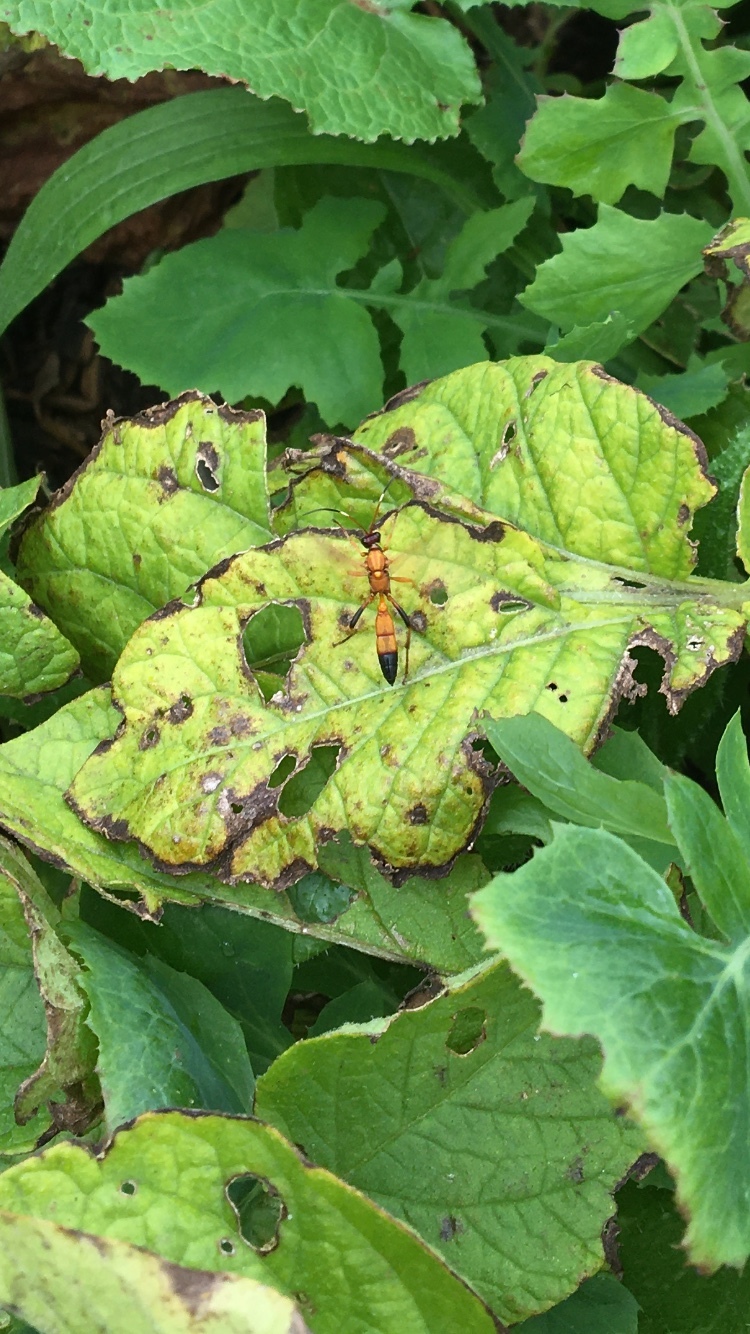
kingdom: Animalia
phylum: Arthropoda
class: Insecta
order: Hymenoptera
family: Ichneumonidae
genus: Ctenochares
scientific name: Ctenochares bicolorus
